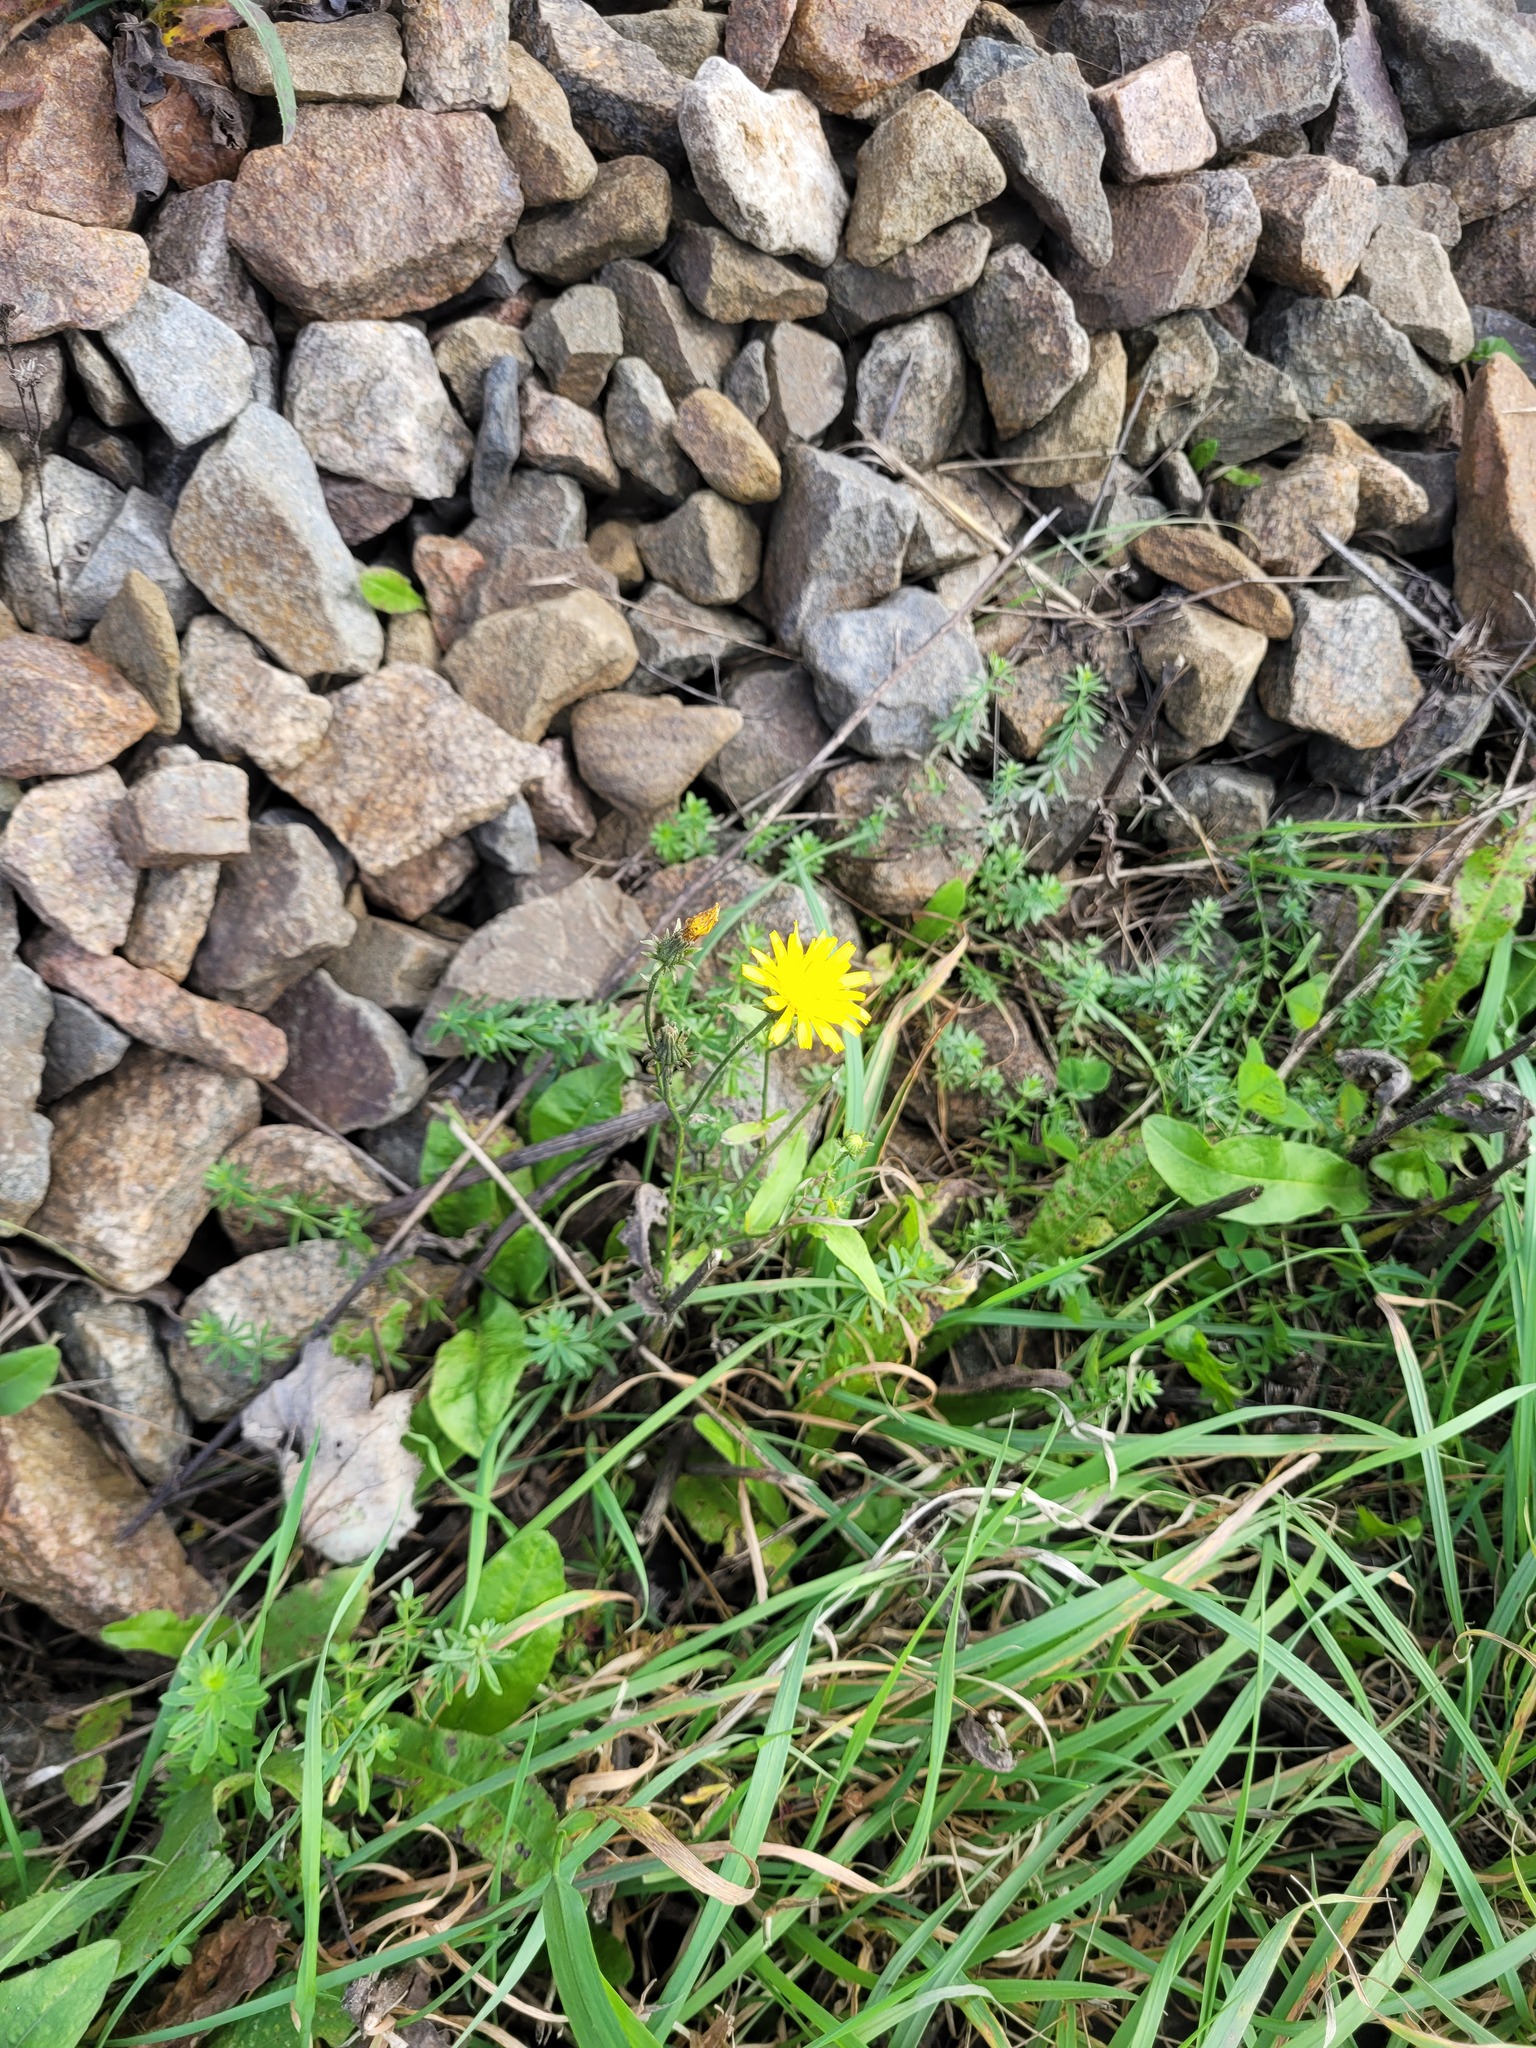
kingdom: Plantae
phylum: Tracheophyta
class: Magnoliopsida
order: Asterales
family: Asteraceae
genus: Picris
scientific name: Picris hieracioides
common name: Hawkweed oxtongue
